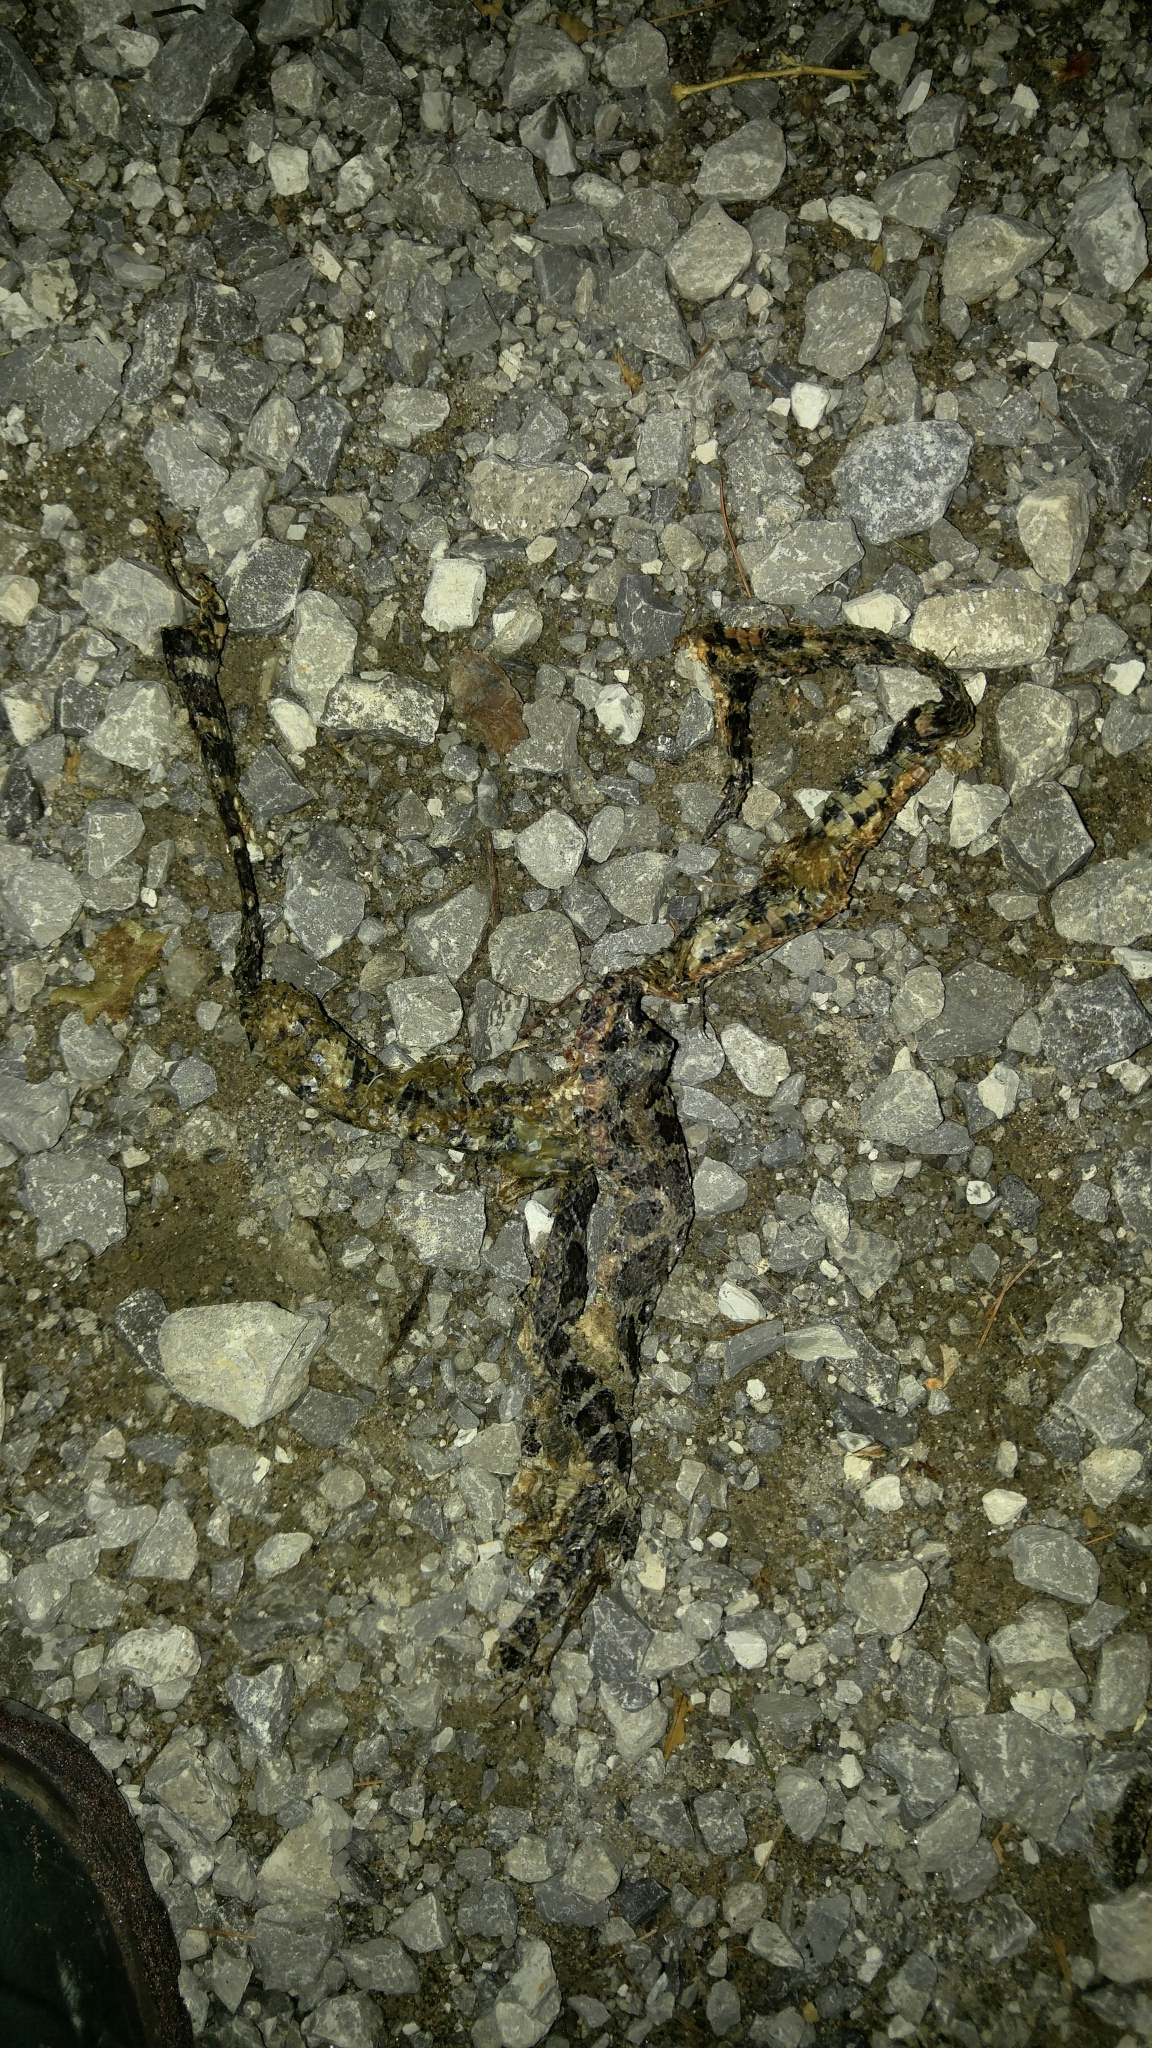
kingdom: Animalia
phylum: Chordata
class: Squamata
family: Colubridae
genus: Lampropeltis
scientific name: Lampropeltis triangulum
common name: Eastern milksnake
